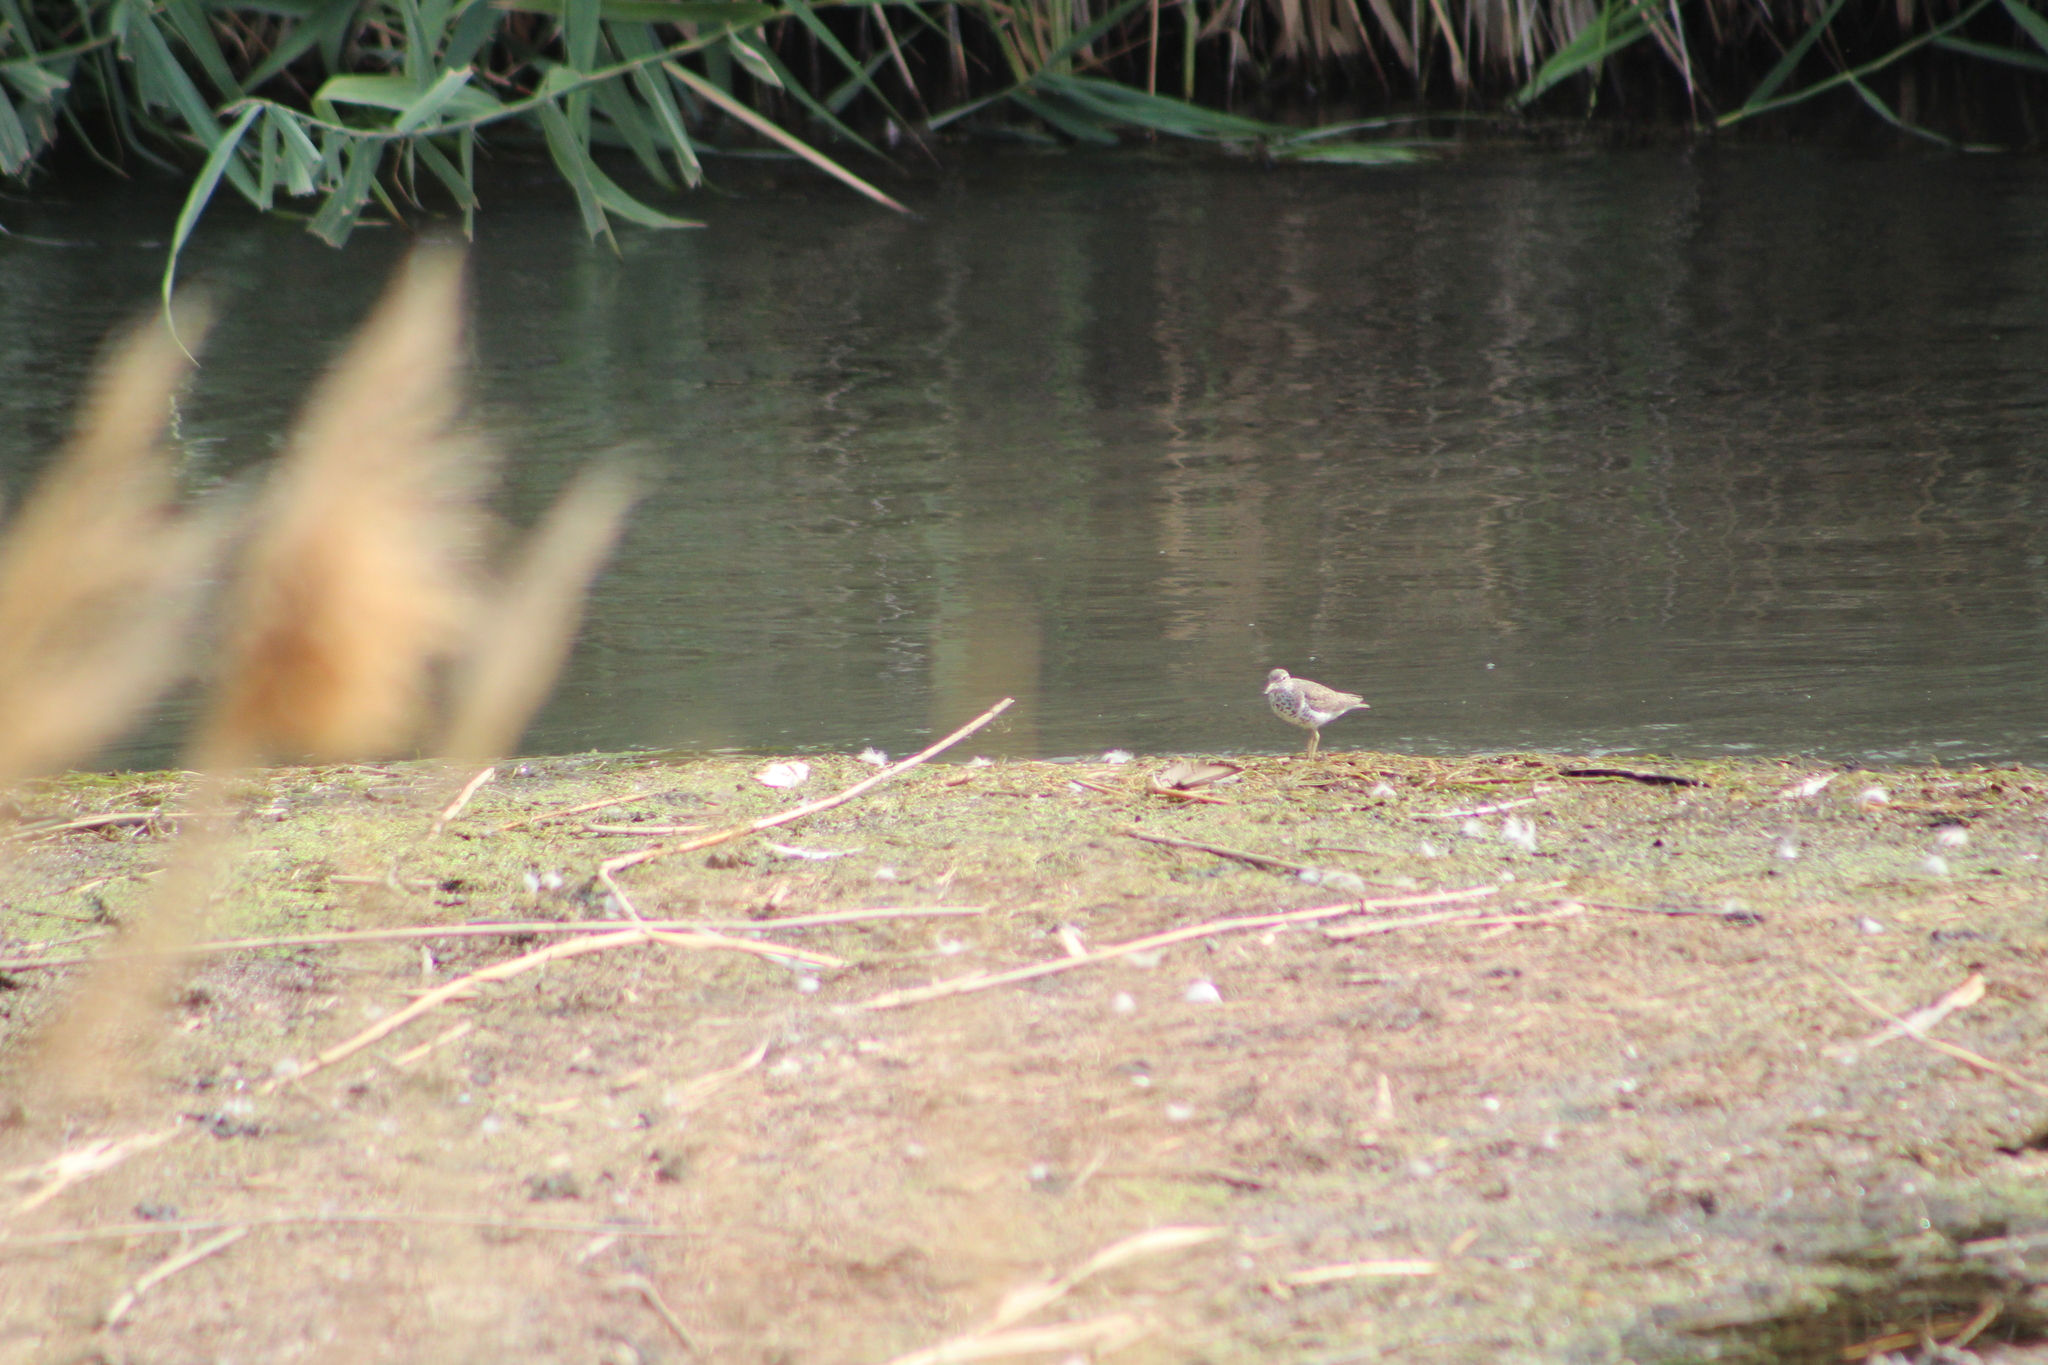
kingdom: Animalia
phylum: Chordata
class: Aves
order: Charadriiformes
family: Scolopacidae
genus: Actitis
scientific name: Actitis macularius
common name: Spotted sandpiper
